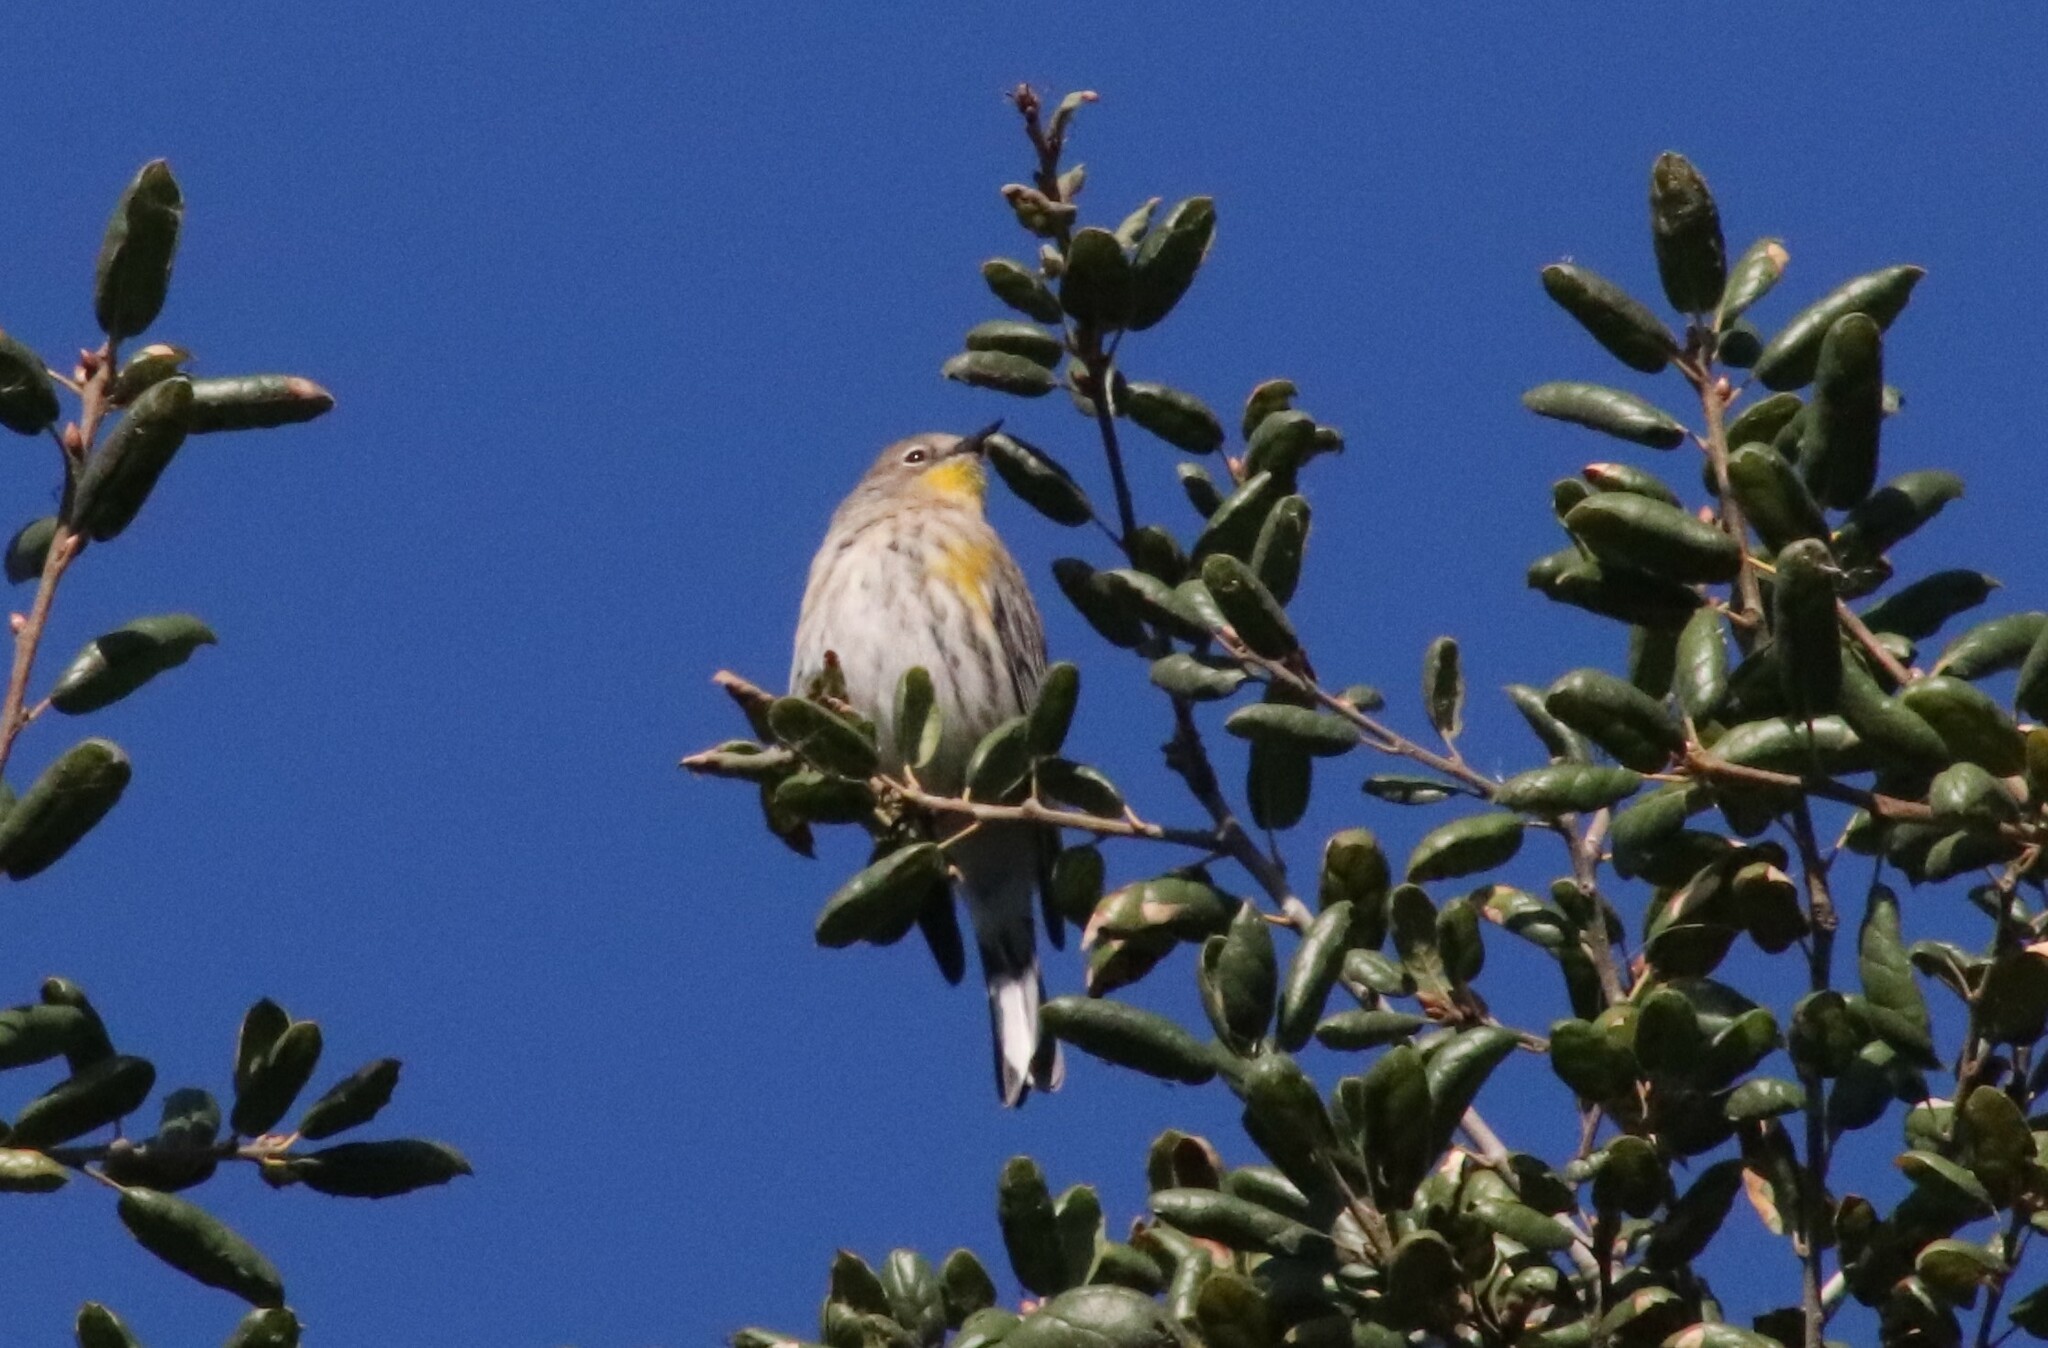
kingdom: Animalia
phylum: Chordata
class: Aves
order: Passeriformes
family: Parulidae
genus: Setophaga
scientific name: Setophaga auduboni
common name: Audubon's warbler
